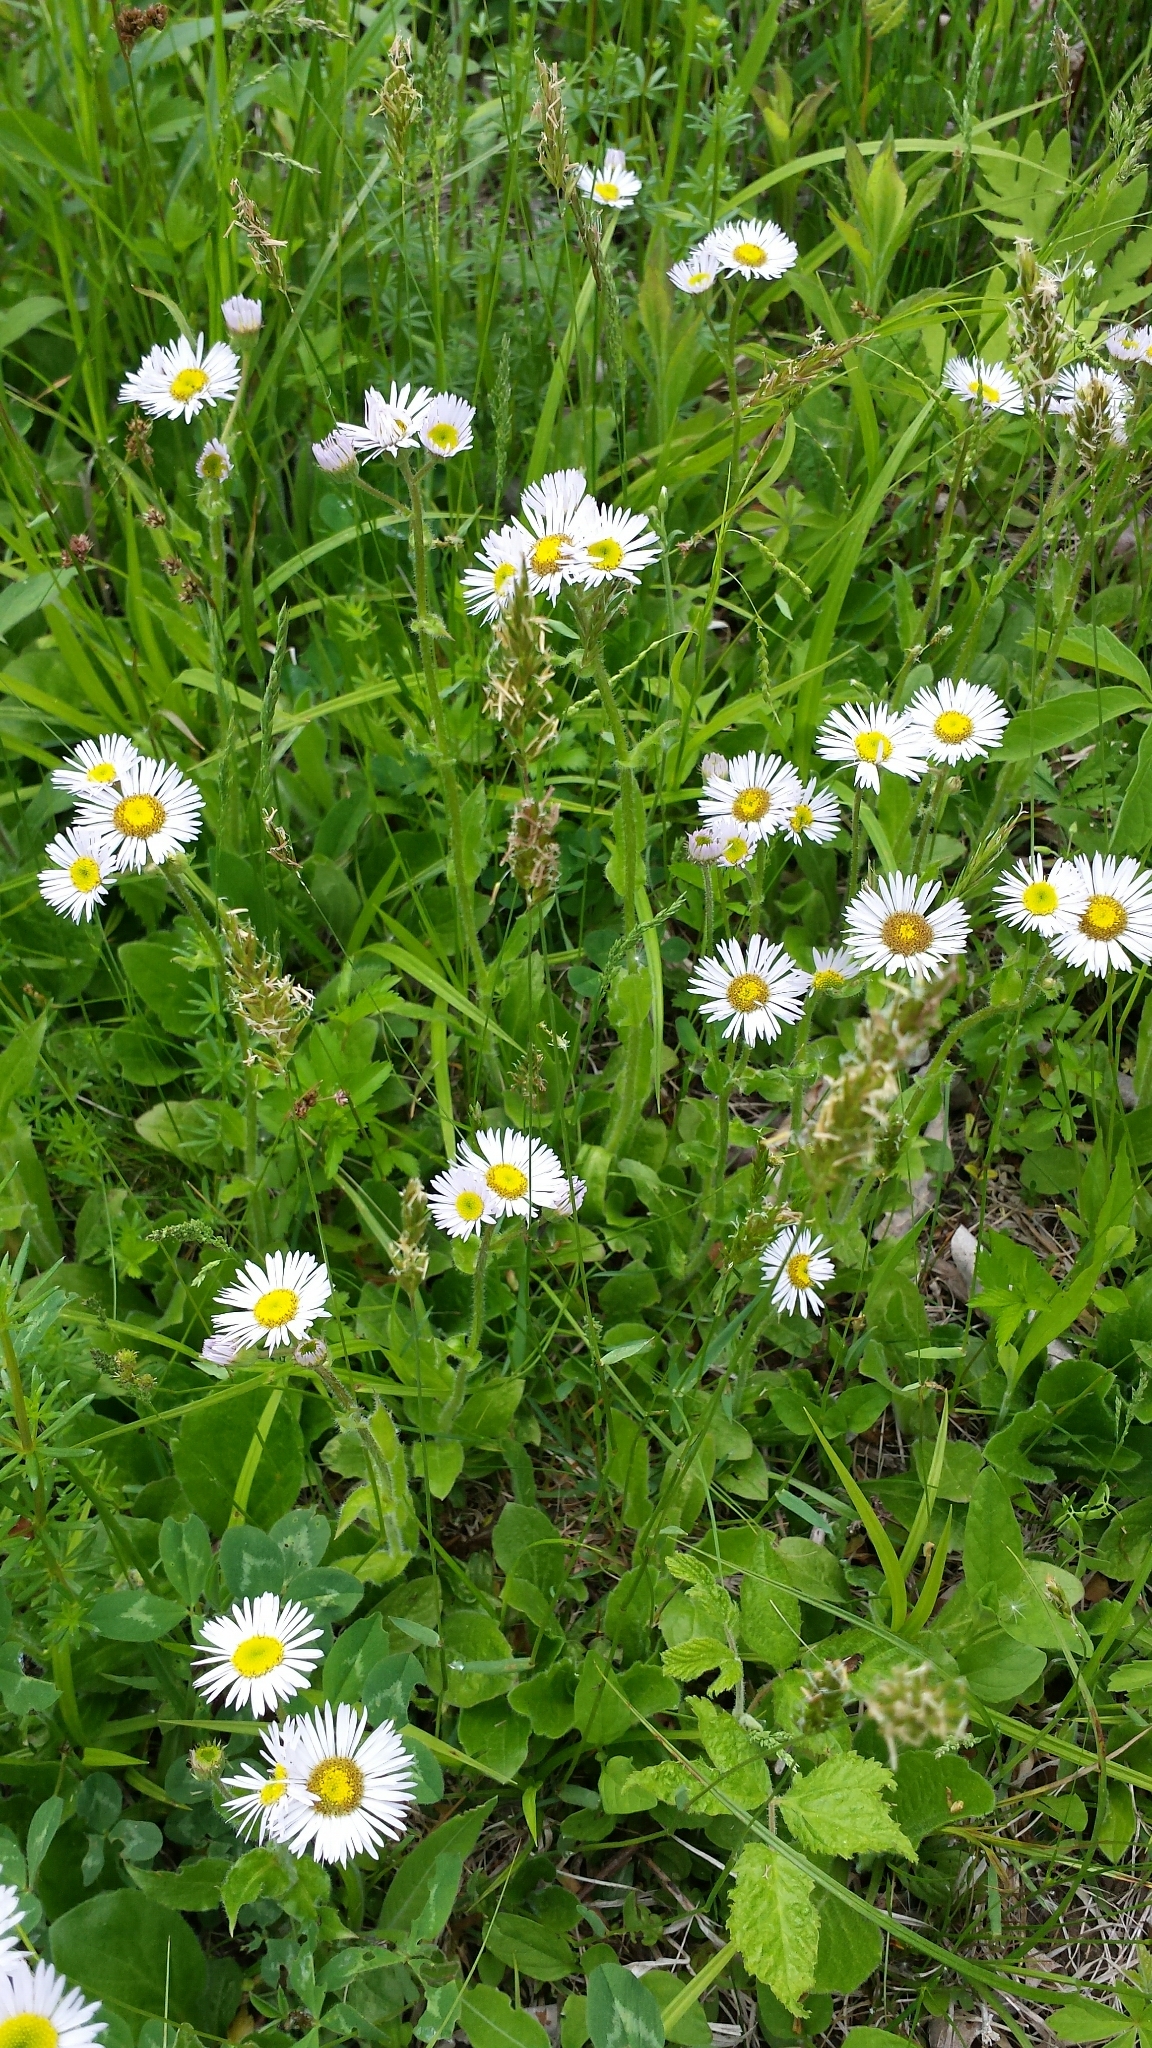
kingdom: Plantae
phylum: Tracheophyta
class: Magnoliopsida
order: Asterales
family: Asteraceae
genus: Erigeron
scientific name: Erigeron strigosus
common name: Common eastern fleabane
